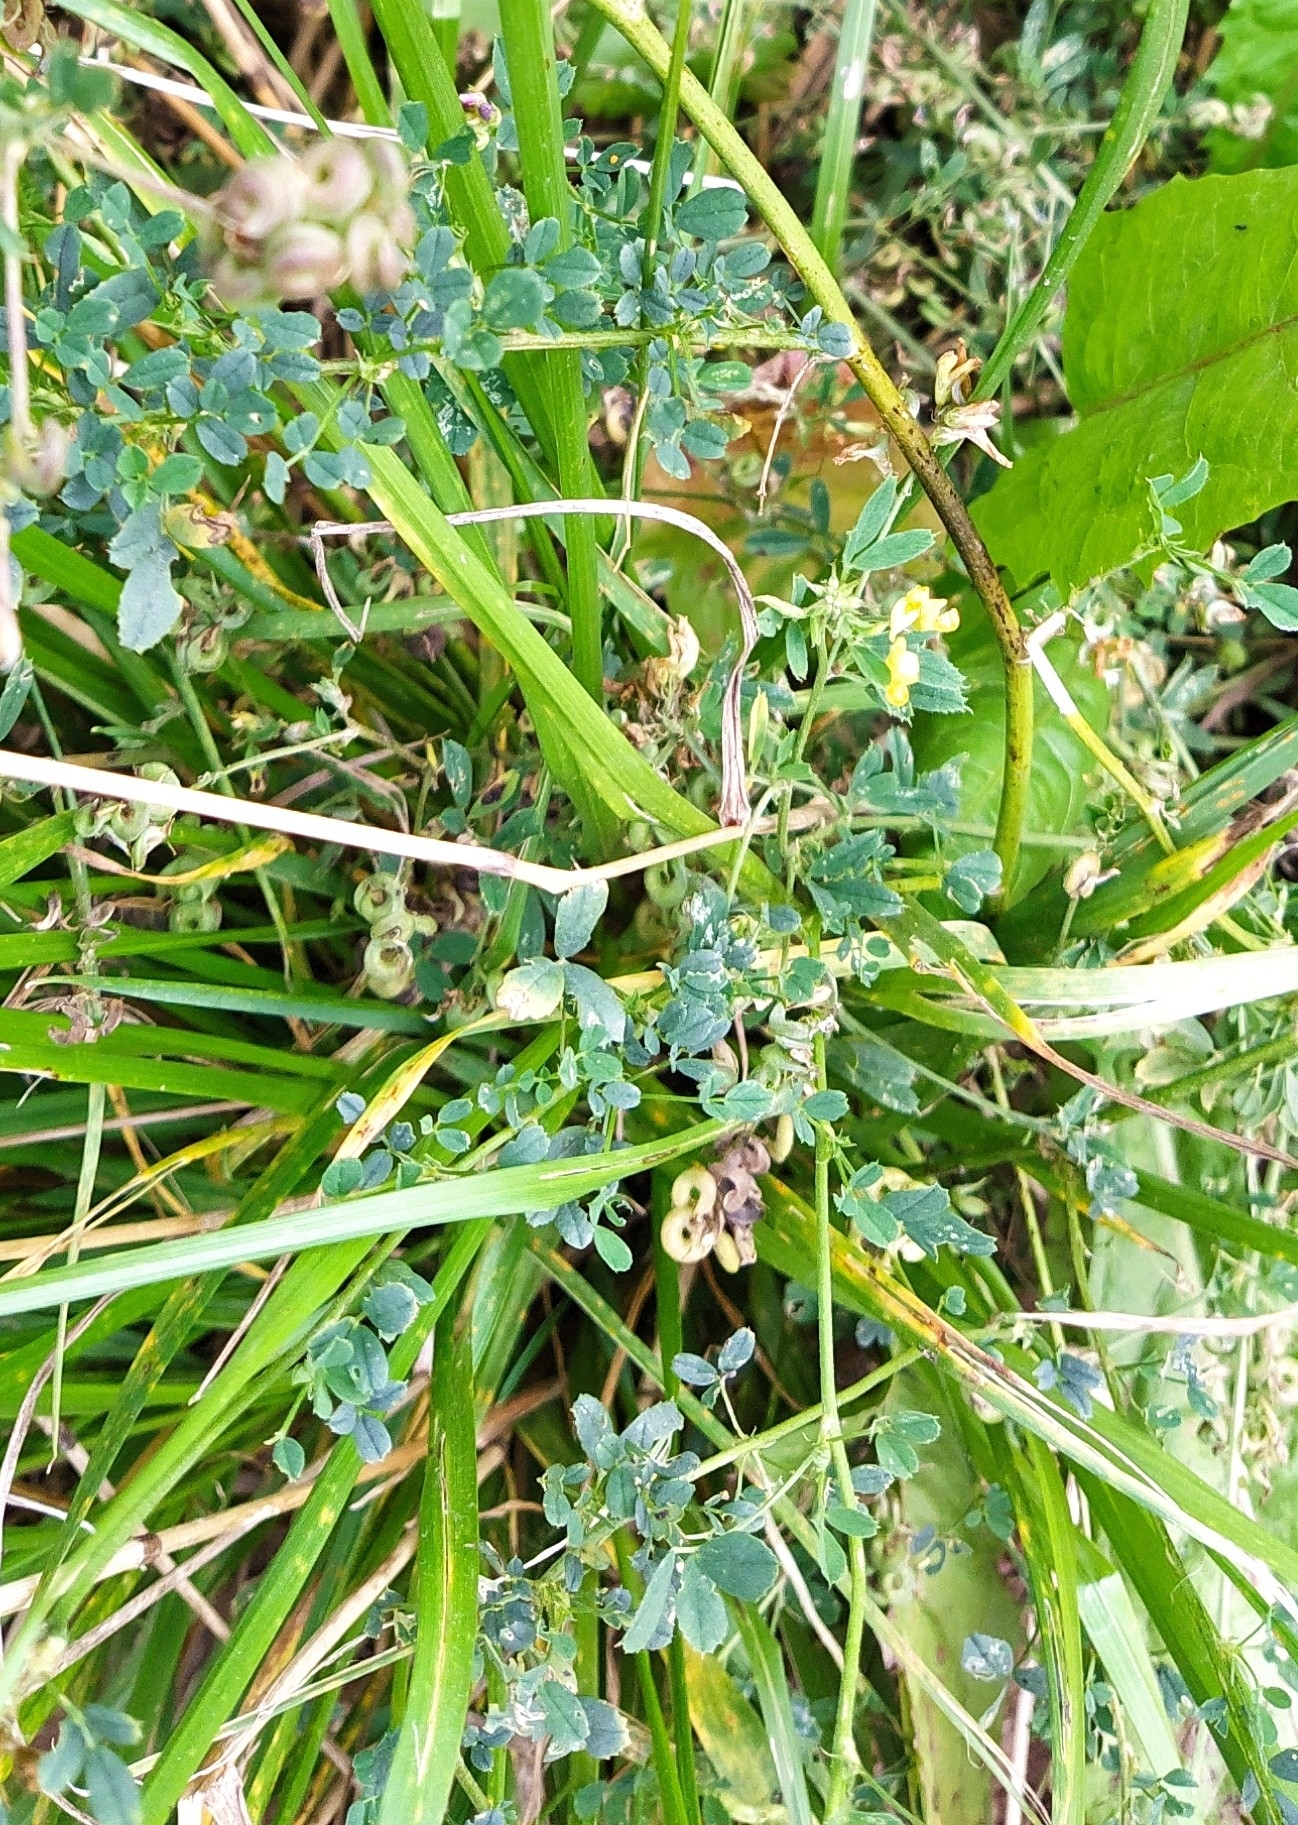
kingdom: Plantae
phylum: Tracheophyta
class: Magnoliopsida
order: Fabales
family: Fabaceae
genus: Medicago
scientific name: Medicago falcata
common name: Sickle medick
